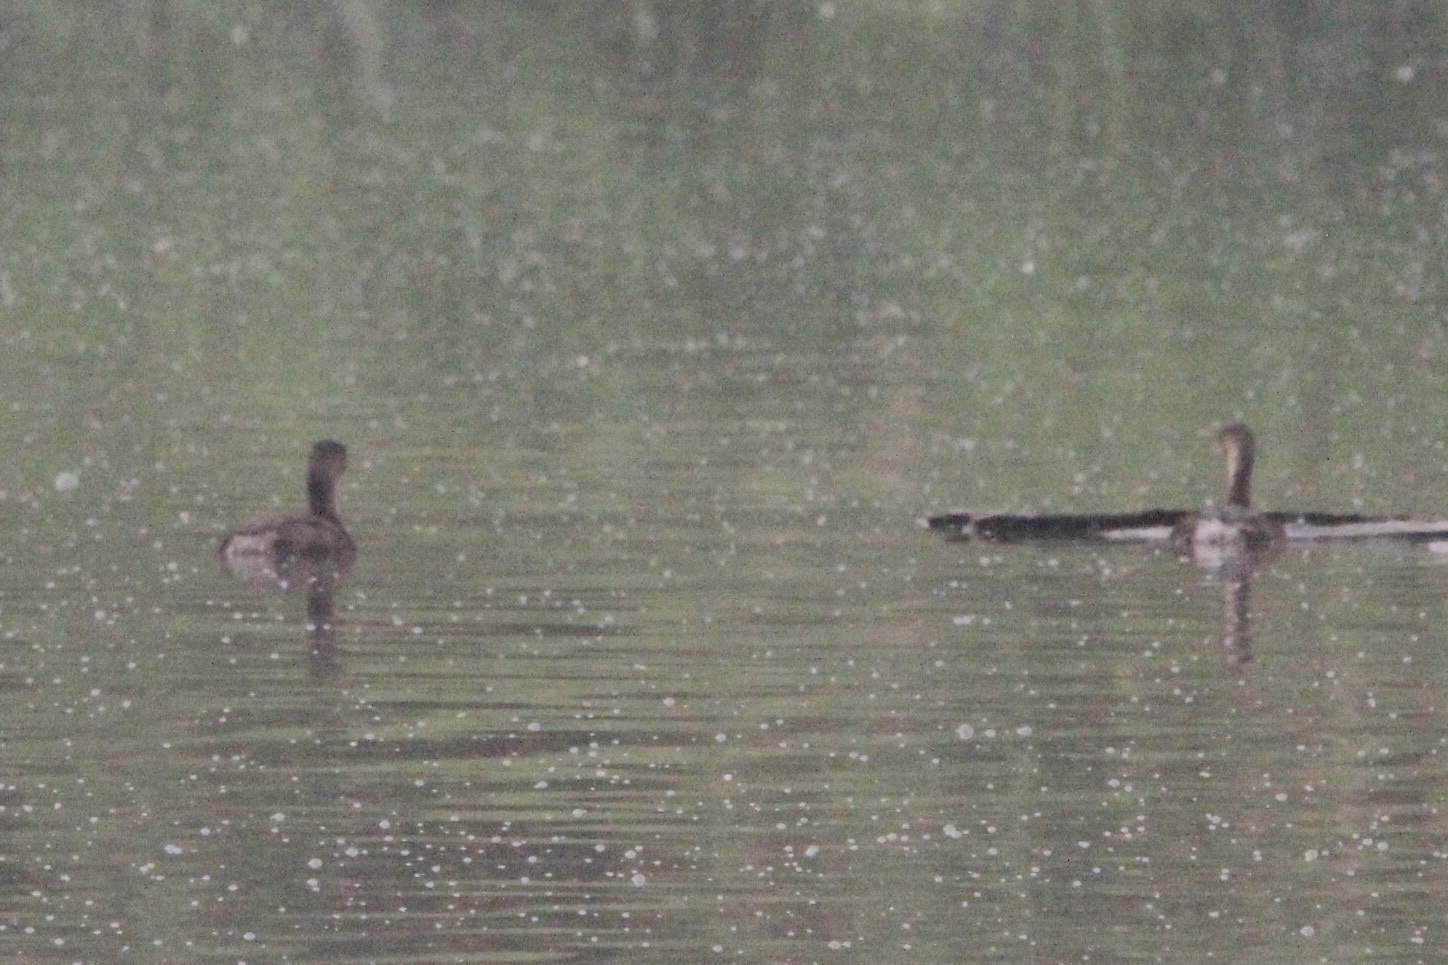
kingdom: Animalia
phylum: Chordata
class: Aves
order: Podicipediformes
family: Podicipedidae
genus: Podilymbus
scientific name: Podilymbus podiceps
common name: Pied-billed grebe
